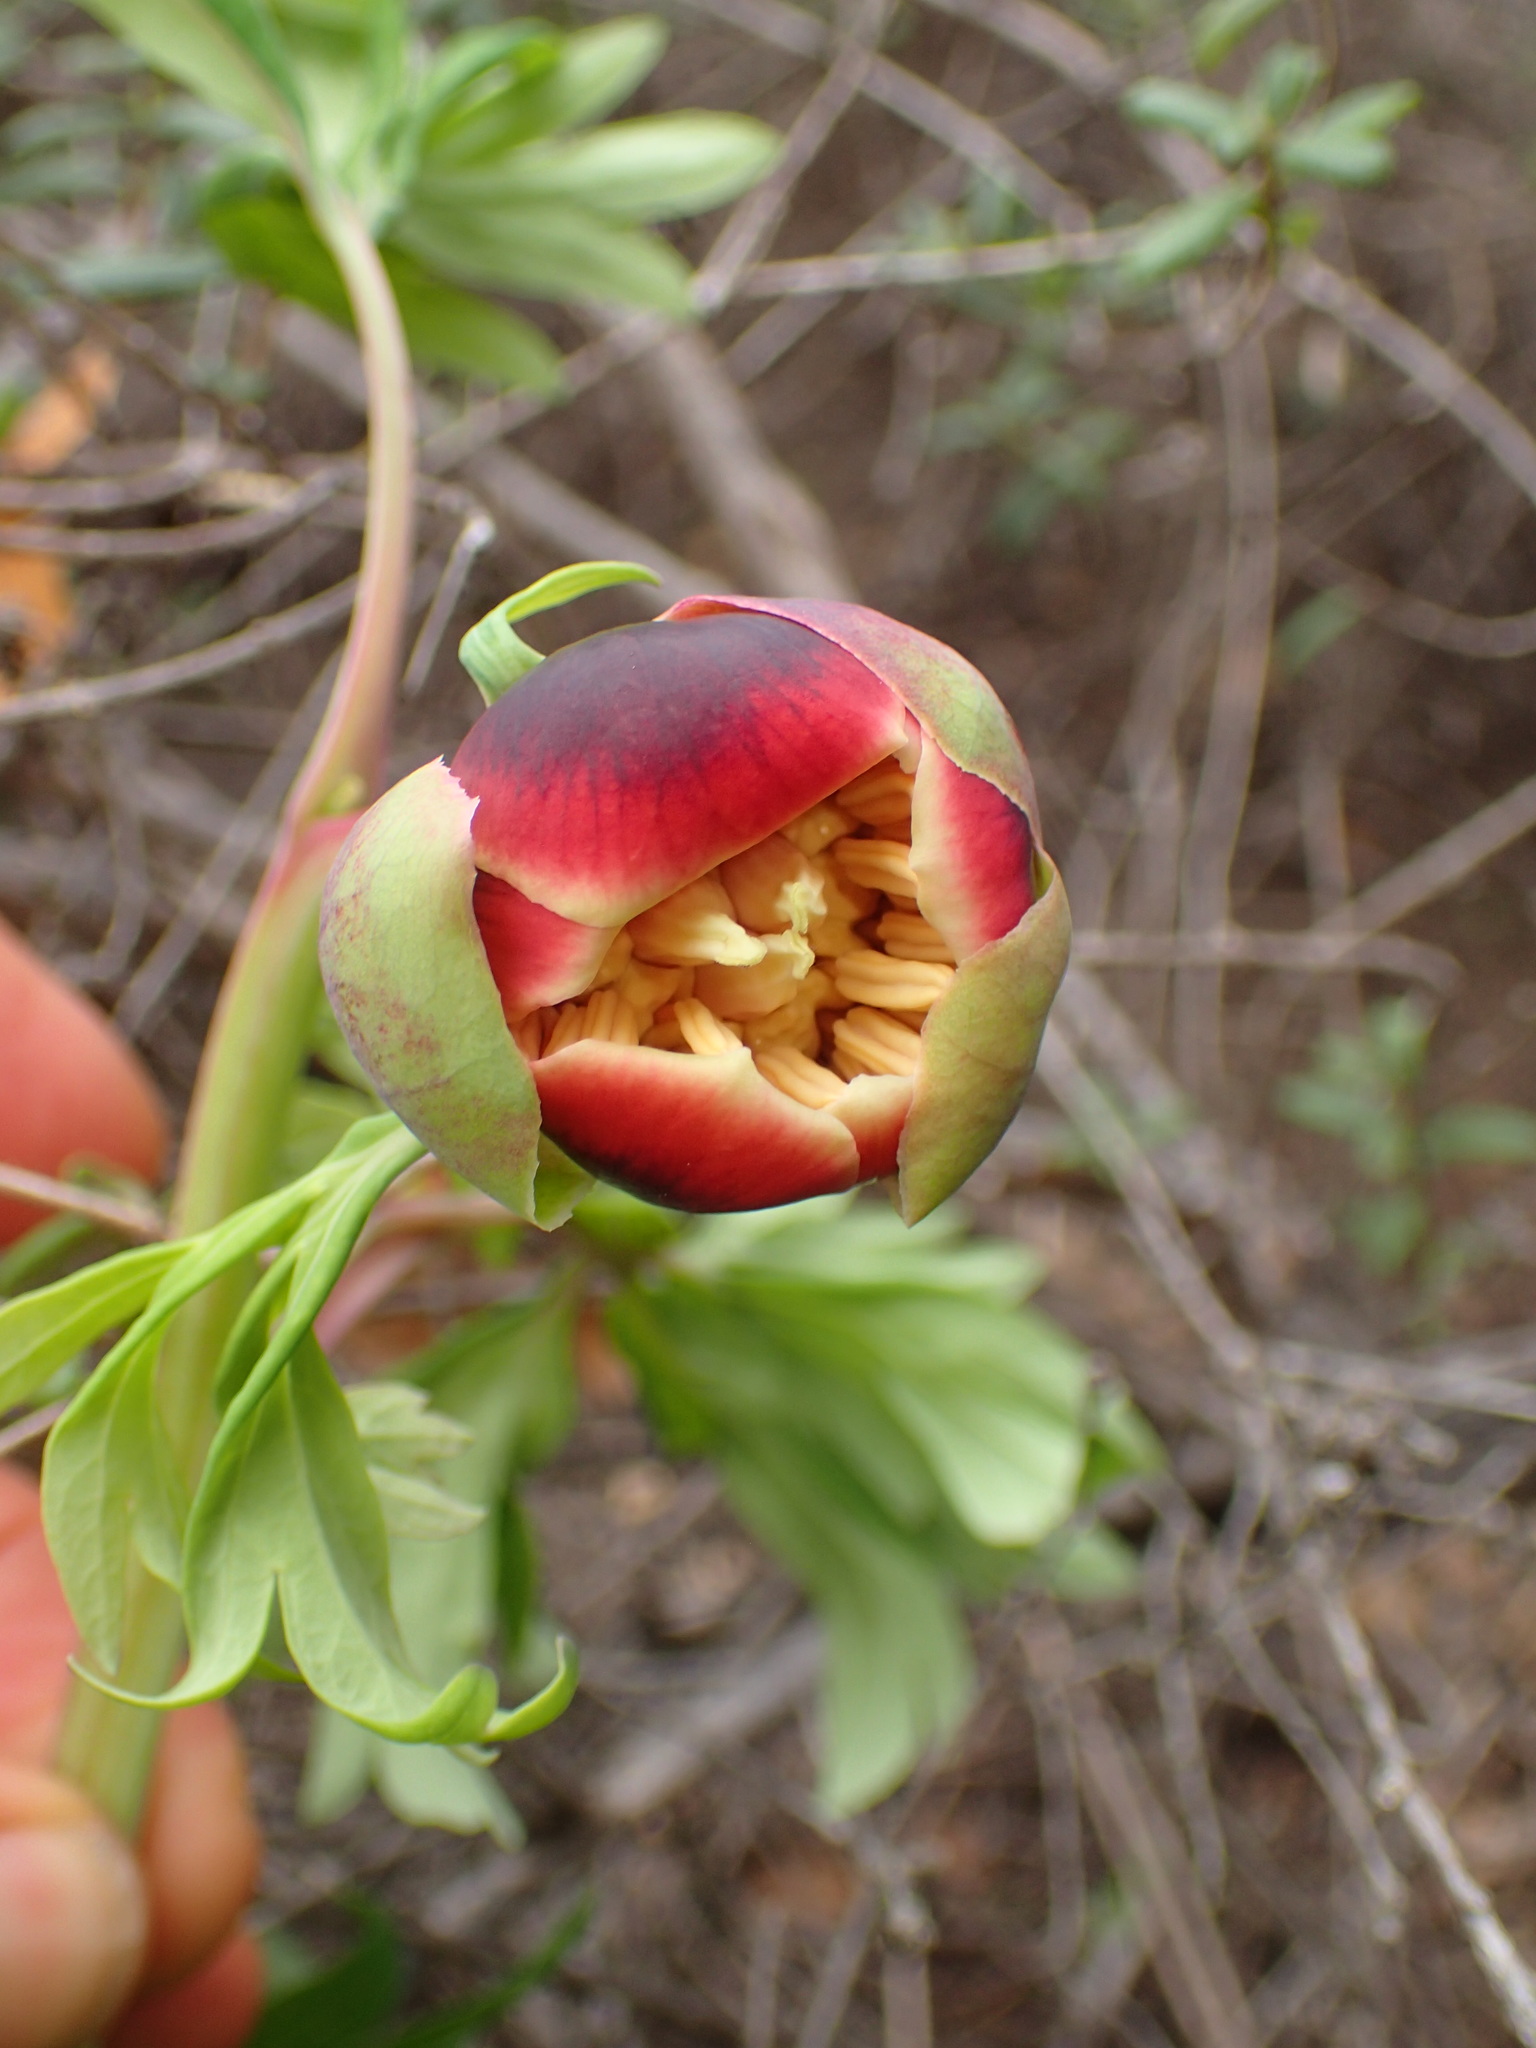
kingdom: Plantae
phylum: Tracheophyta
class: Magnoliopsida
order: Saxifragales
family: Paeoniaceae
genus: Paeonia
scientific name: Paeonia californica
